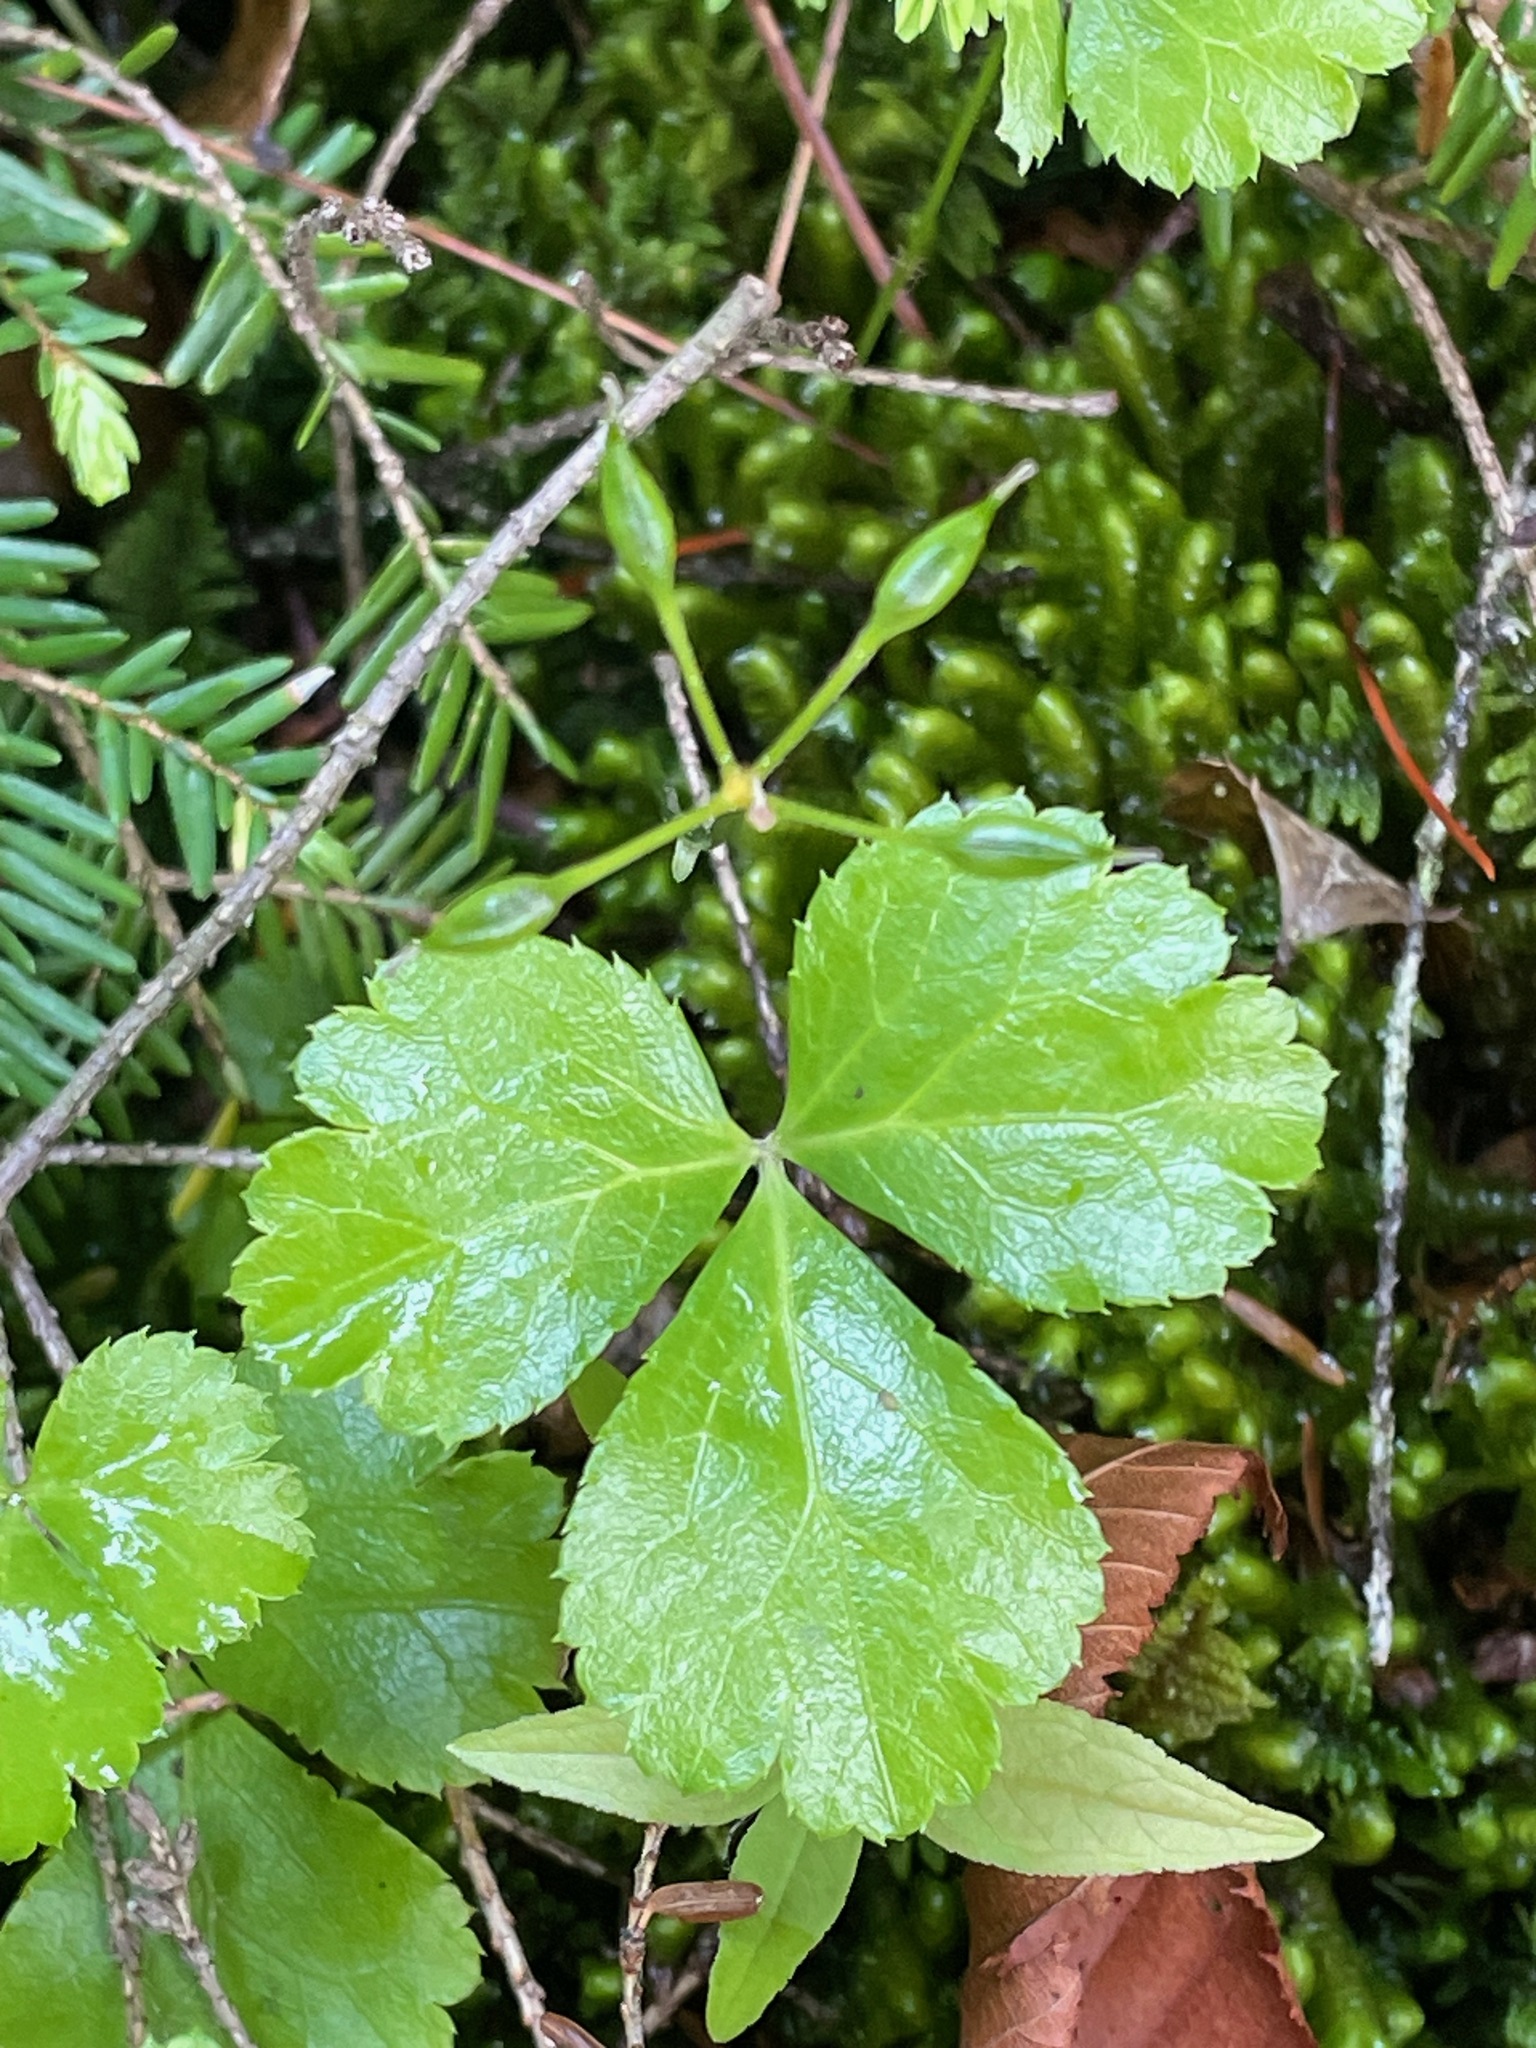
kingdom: Plantae
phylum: Tracheophyta
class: Magnoliopsida
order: Ranunculales
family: Ranunculaceae
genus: Coptis
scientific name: Coptis trifolia
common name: Canker-root
